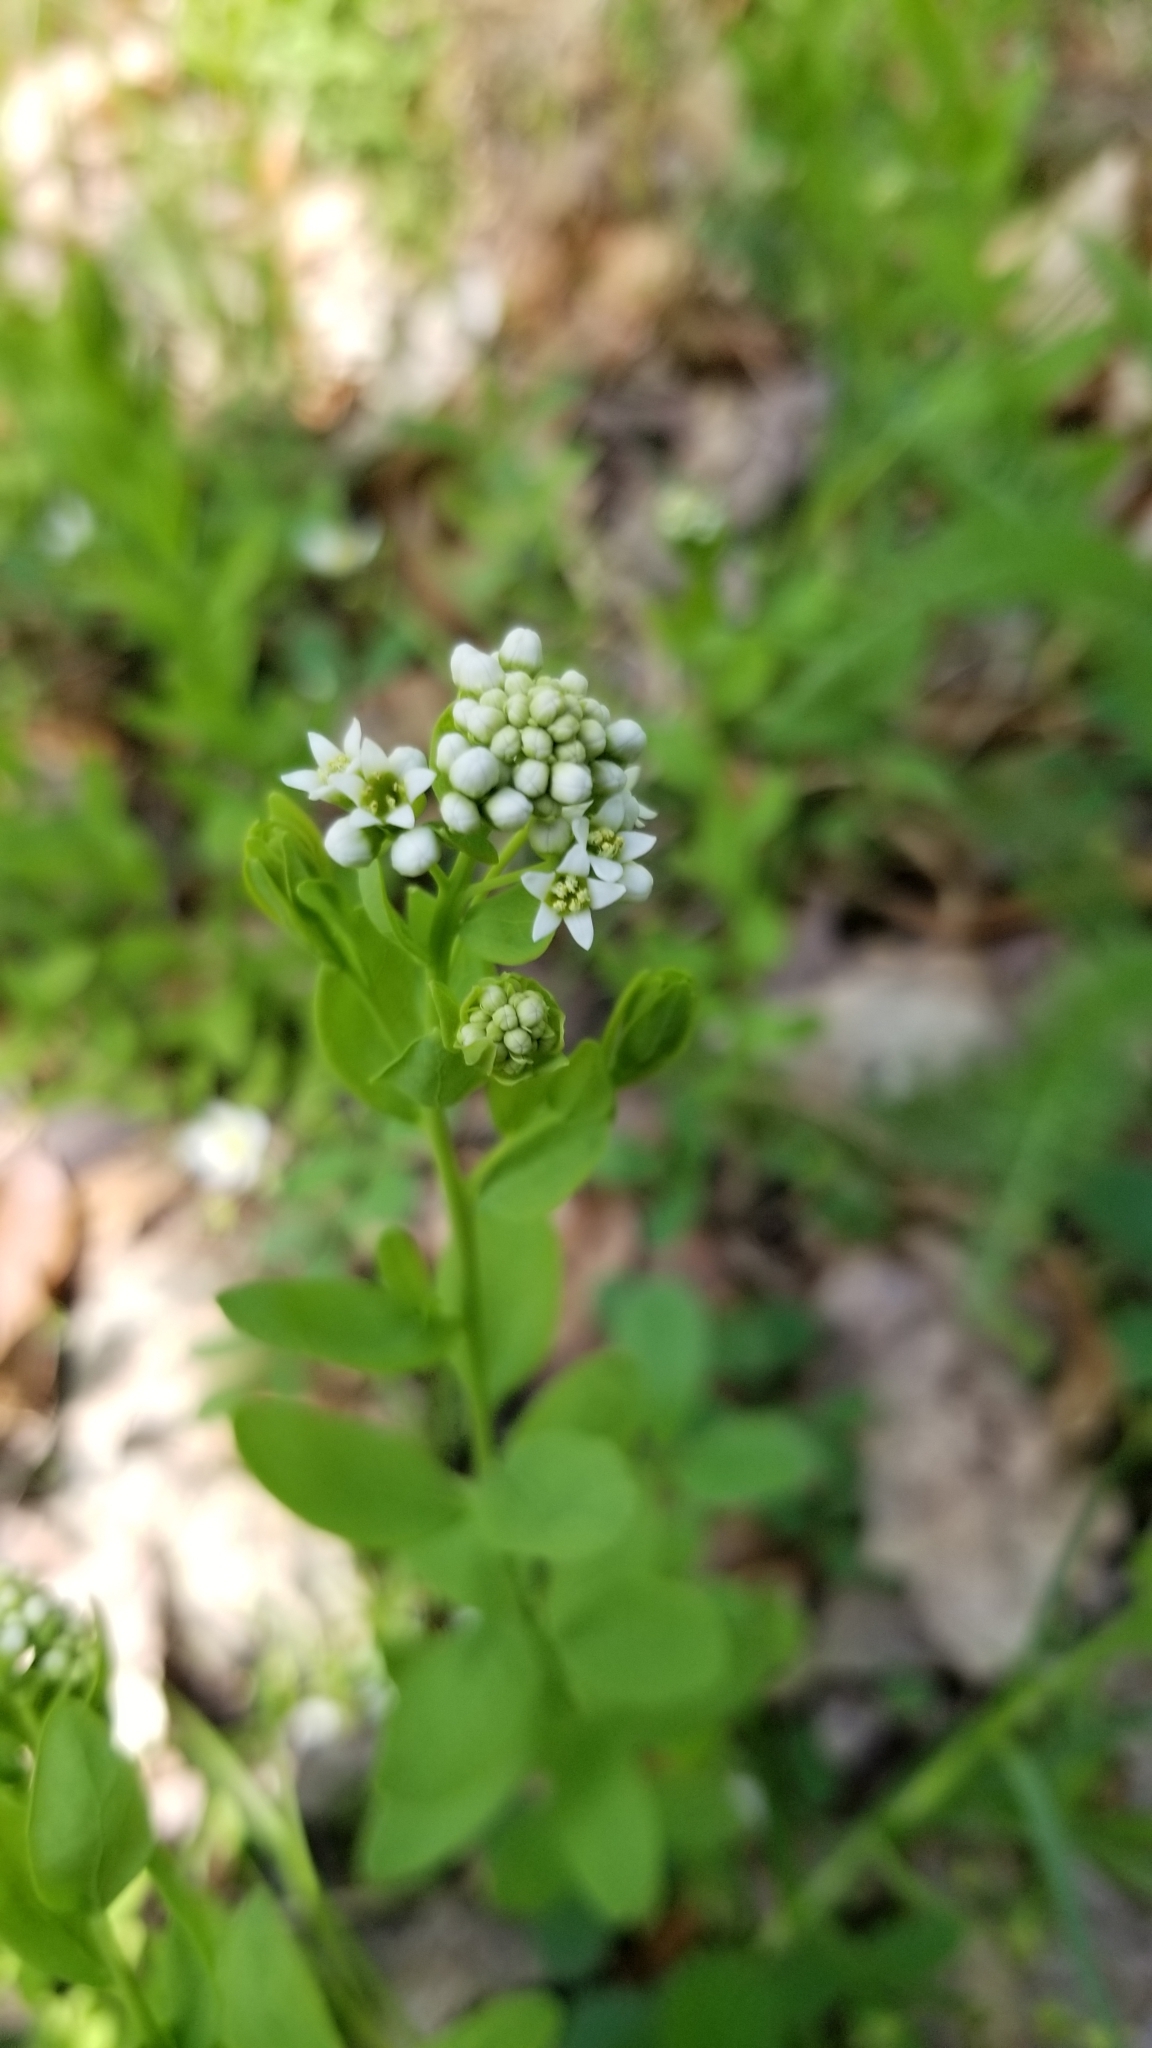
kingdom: Plantae
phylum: Tracheophyta
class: Magnoliopsida
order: Santalales
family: Comandraceae
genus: Comandra
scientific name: Comandra umbellata
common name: Bastard toadflax
